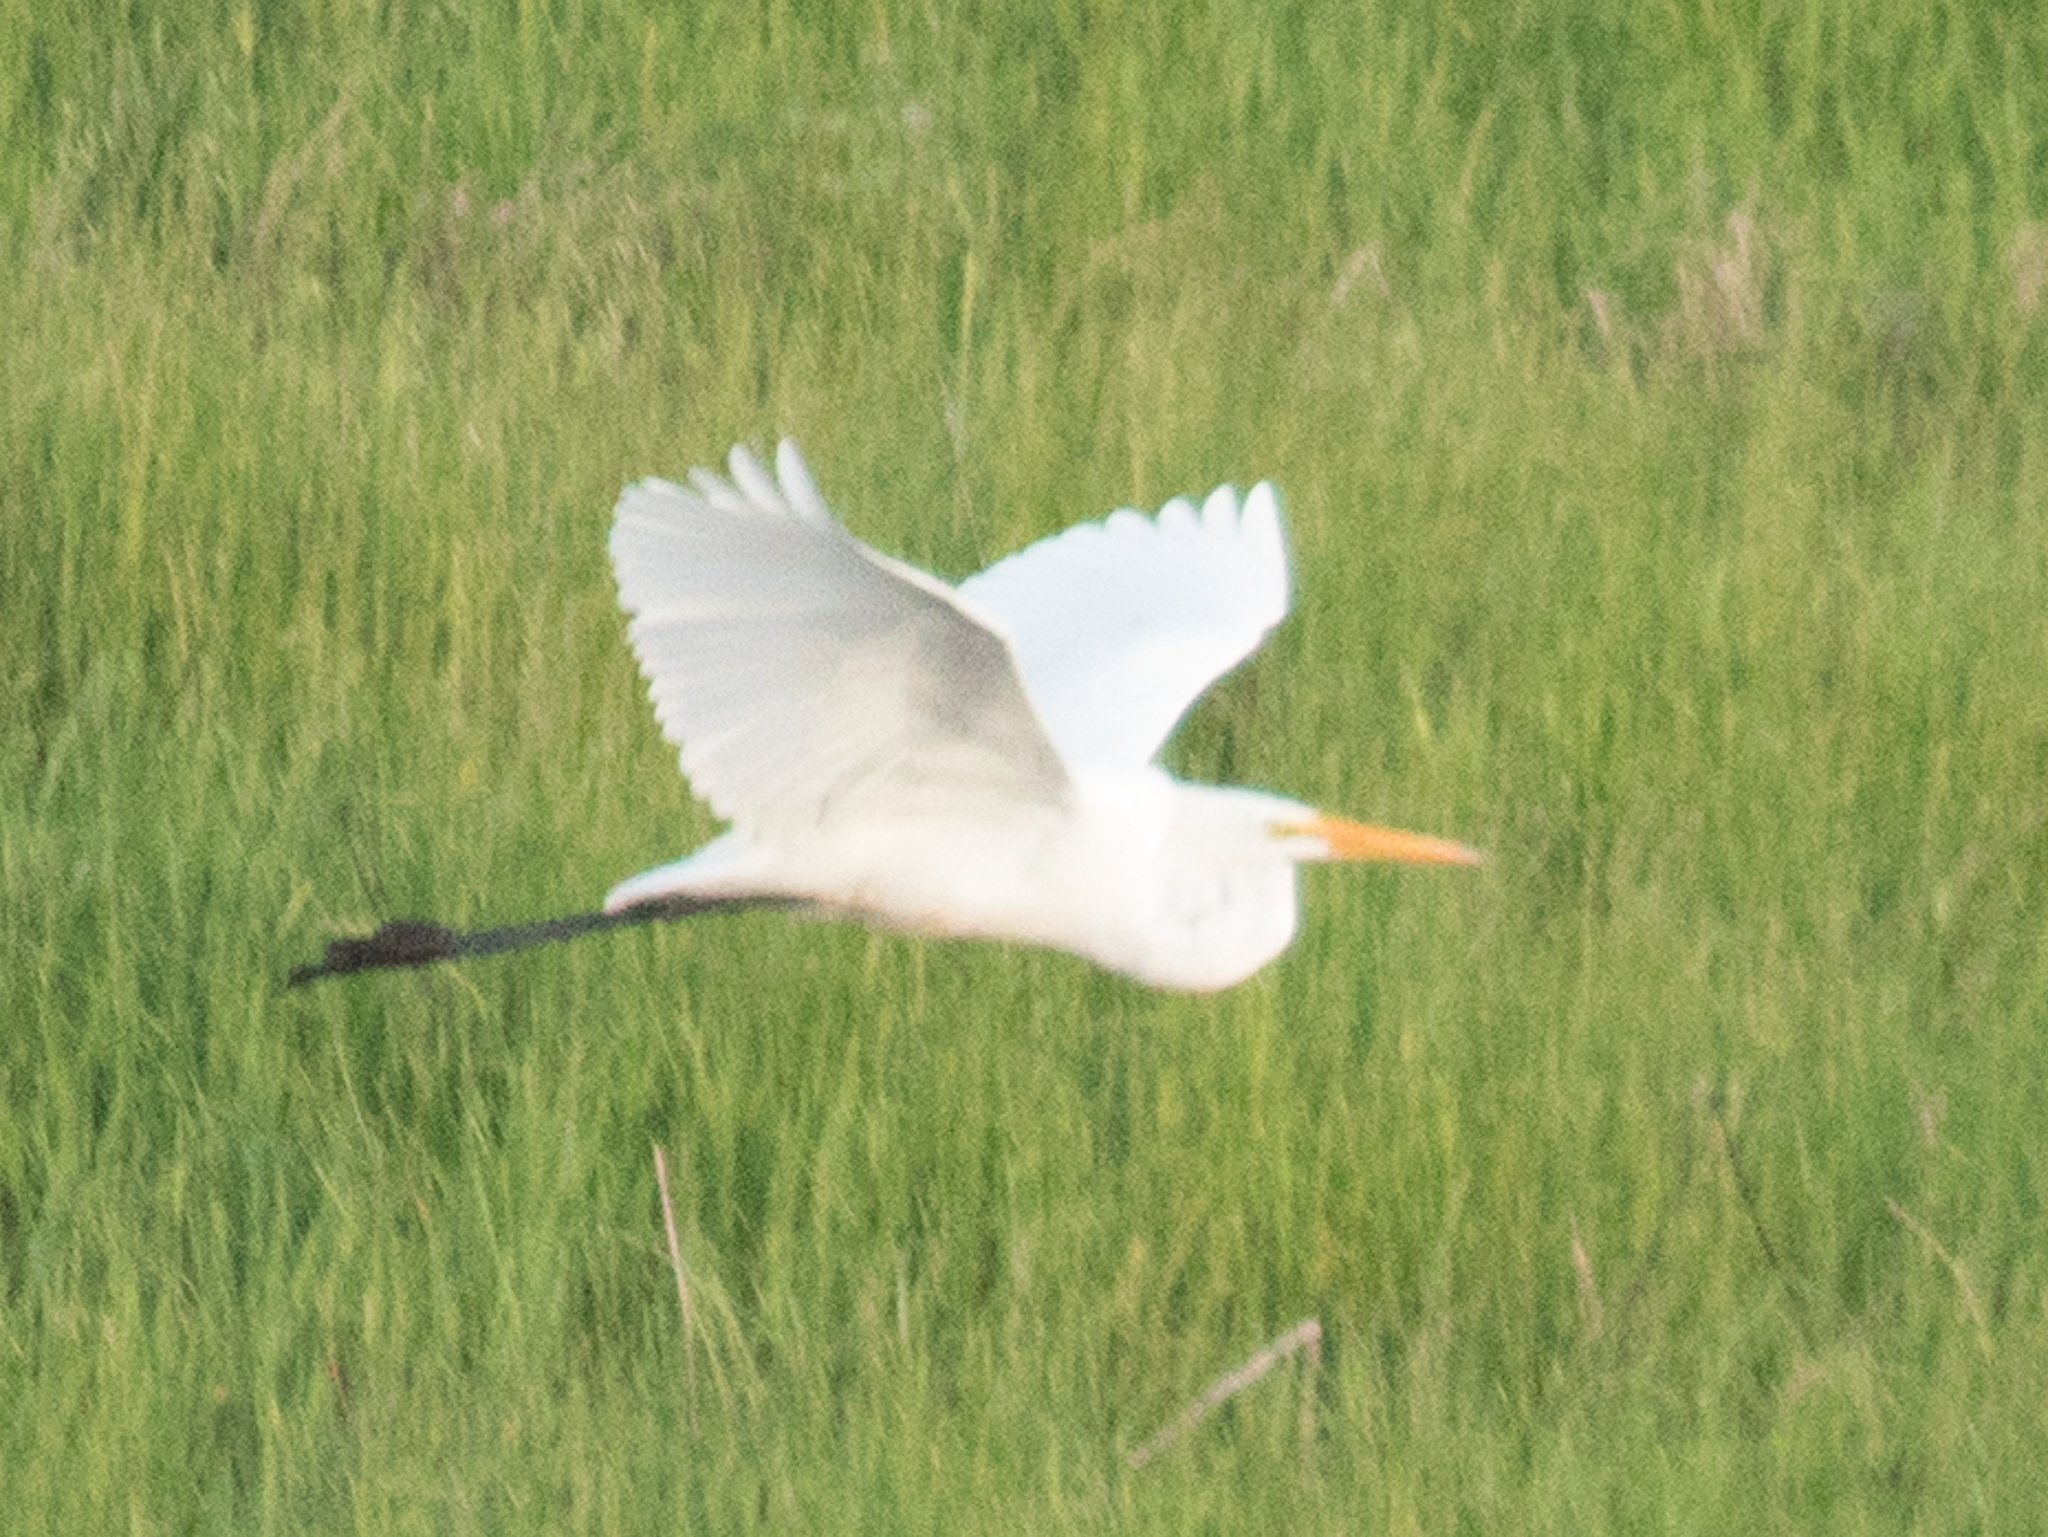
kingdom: Animalia
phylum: Chordata
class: Aves
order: Pelecaniformes
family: Ardeidae
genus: Ardea
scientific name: Ardea alba
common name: Great egret
